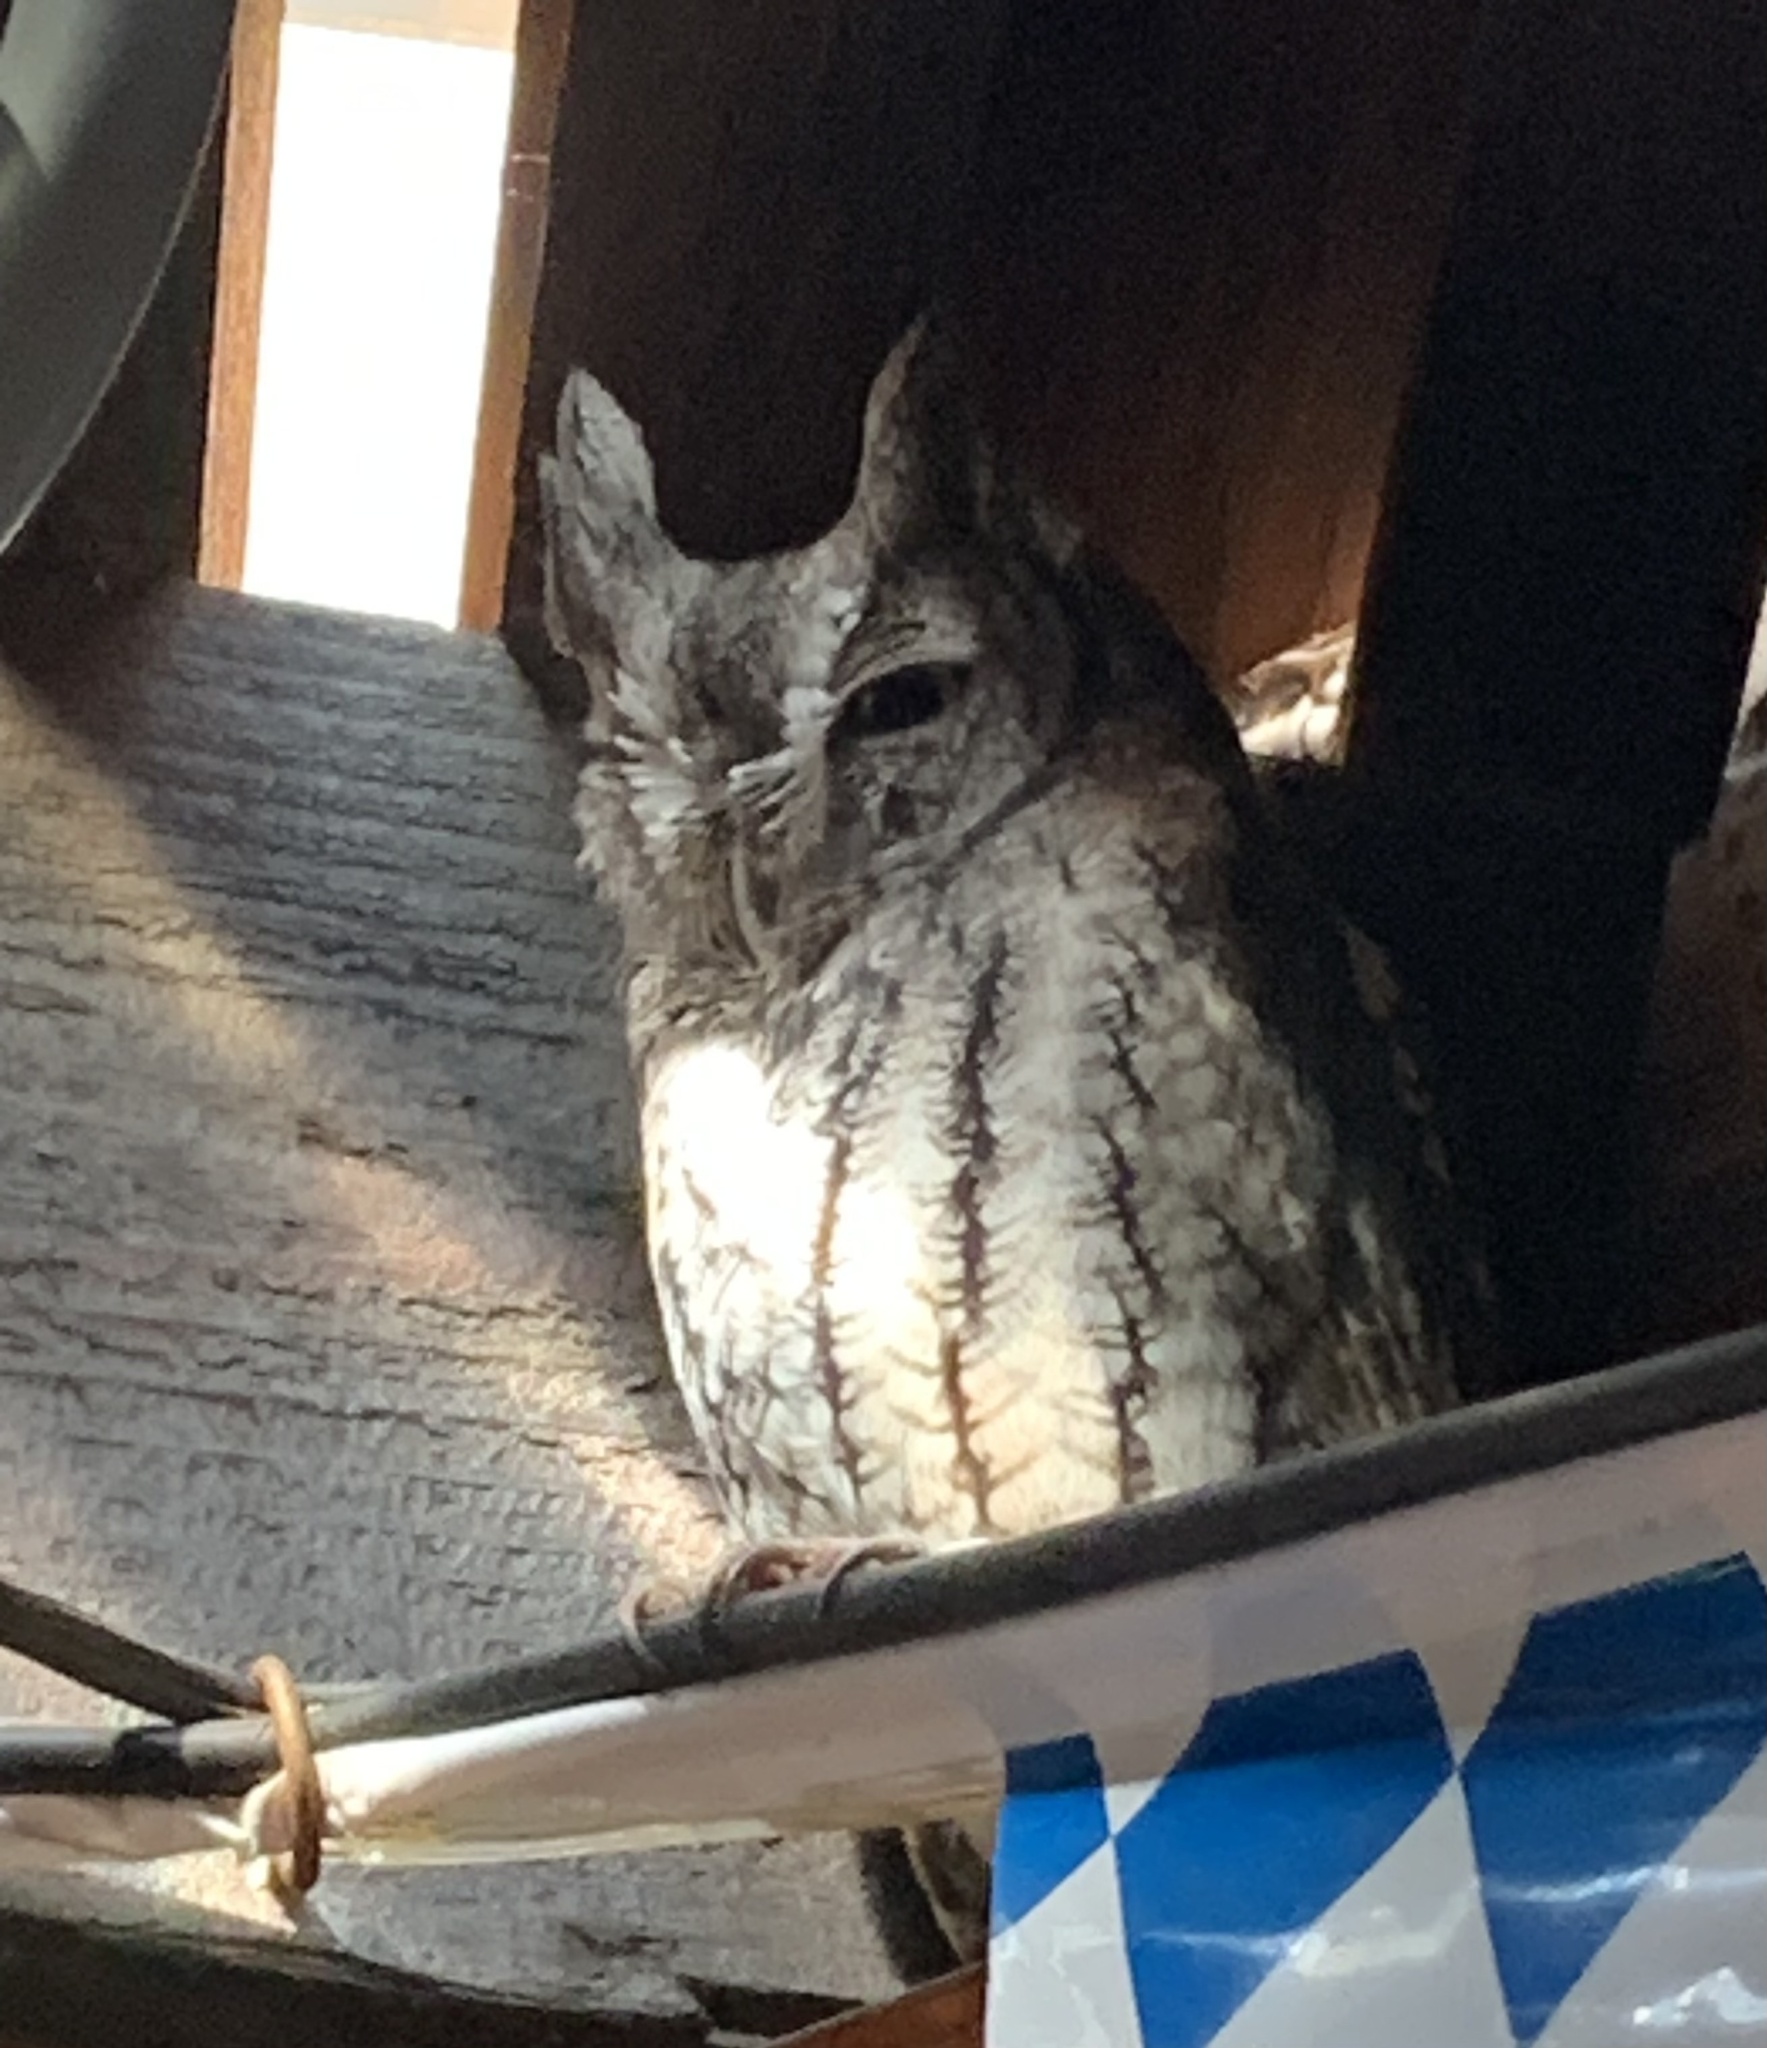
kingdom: Animalia
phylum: Chordata
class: Aves
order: Strigiformes
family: Strigidae
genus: Megascops
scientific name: Megascops asio
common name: Eastern screech-owl
